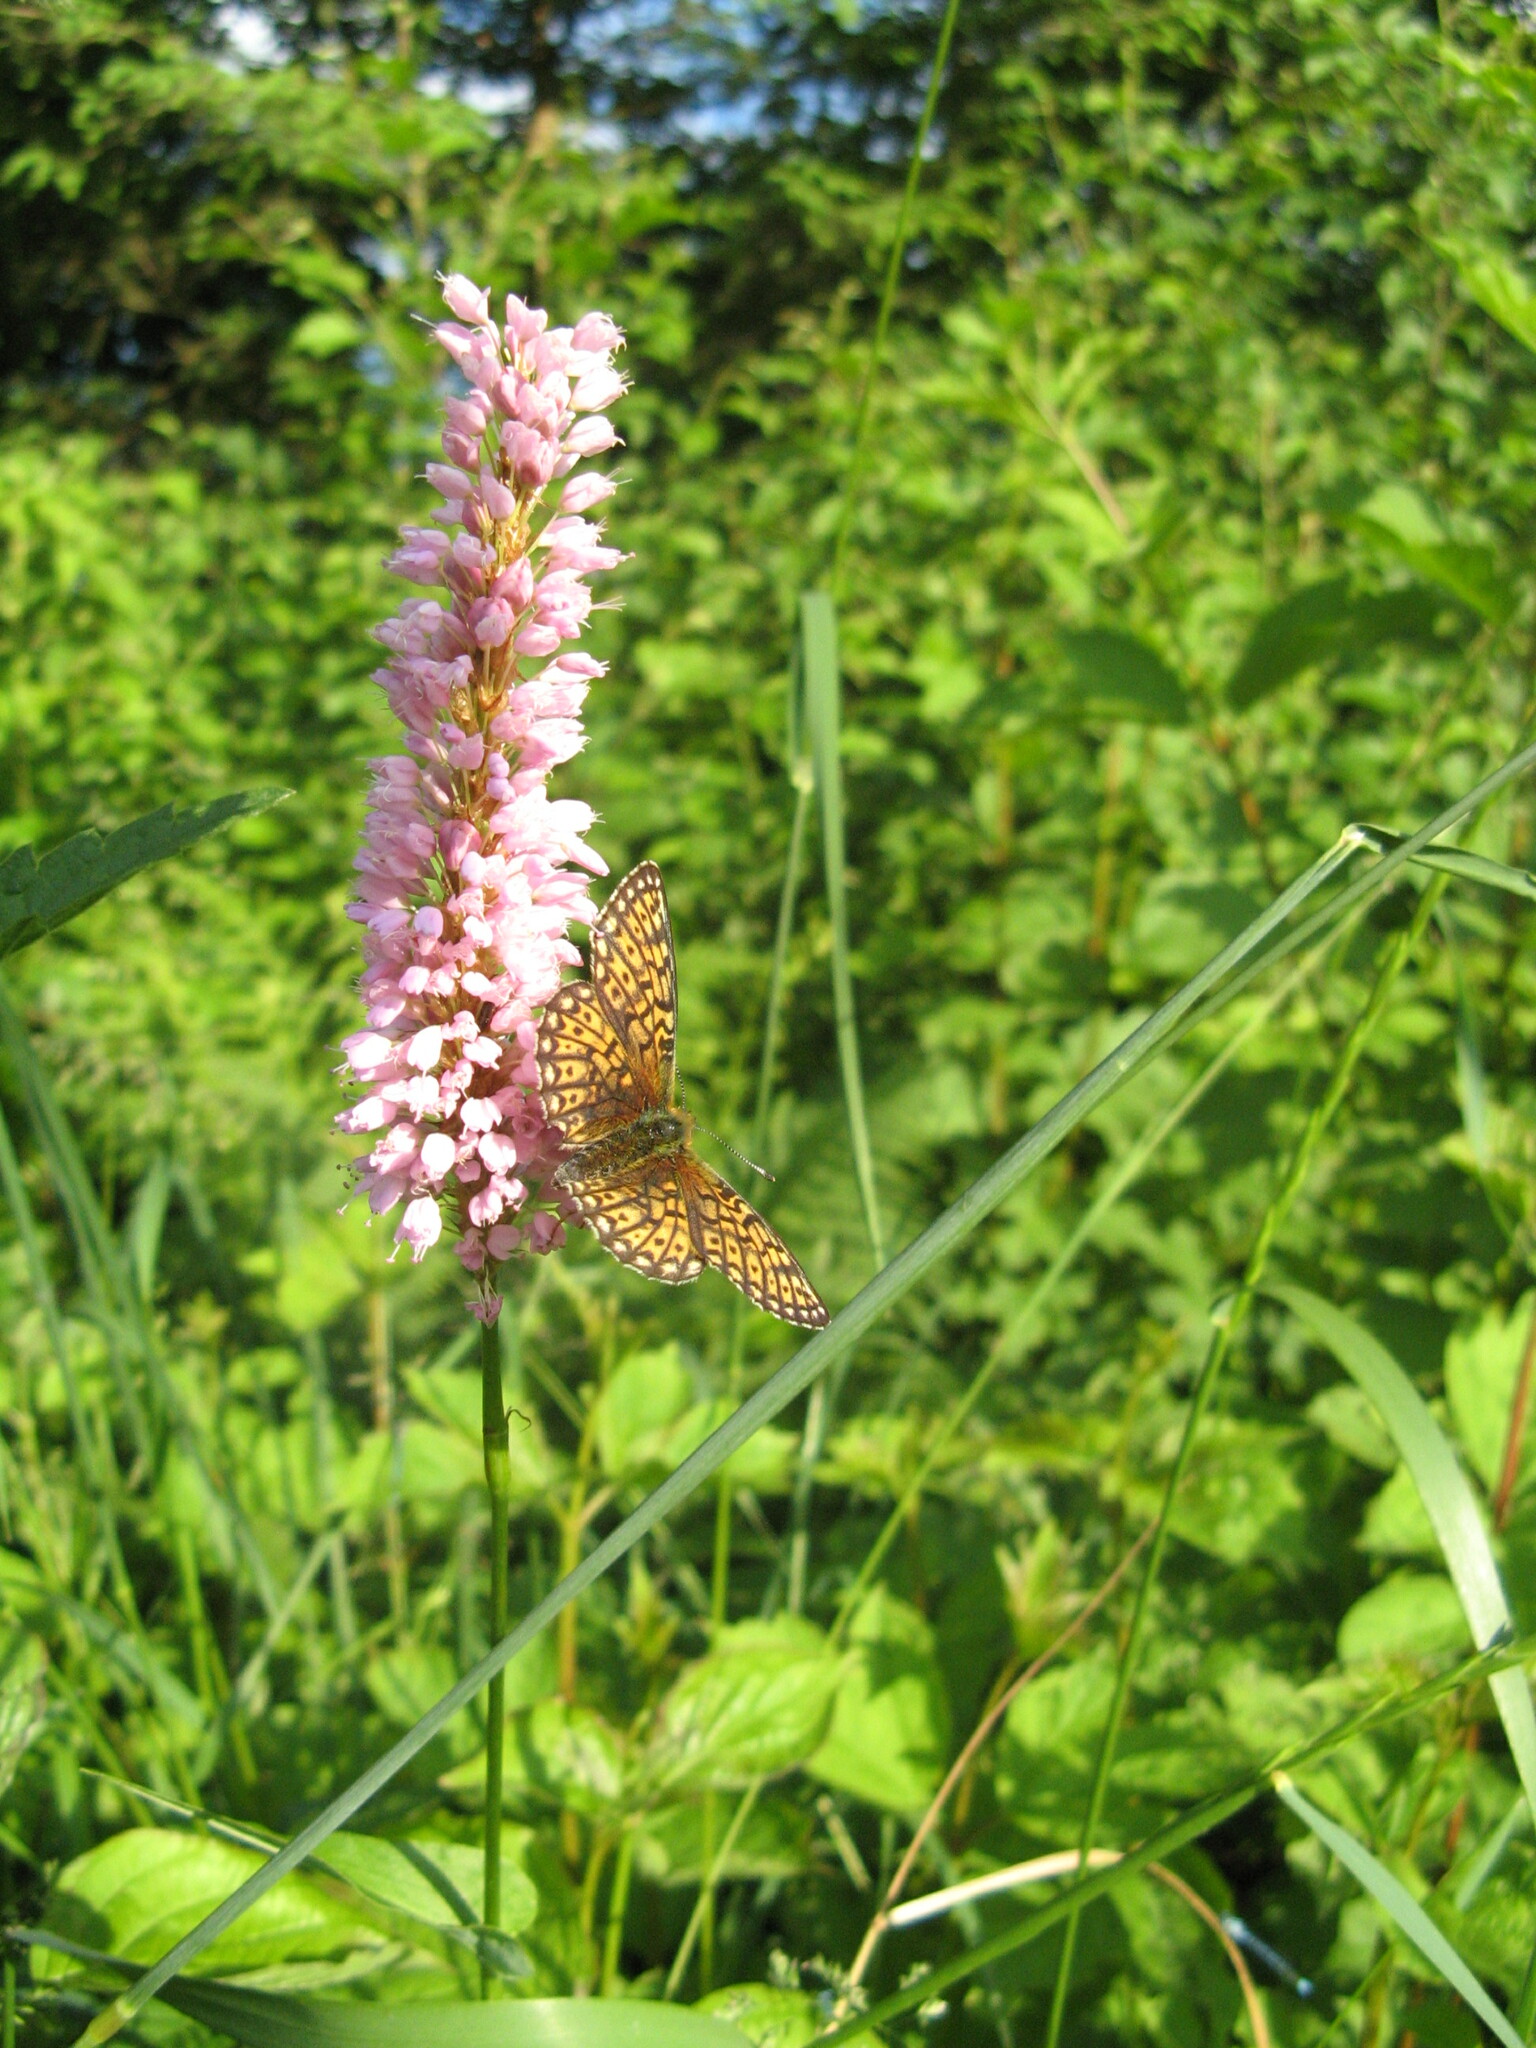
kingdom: Plantae
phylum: Tracheophyta
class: Magnoliopsida
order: Caryophyllales
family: Polygonaceae
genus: Bistorta
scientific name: Bistorta officinalis
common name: Common bistort
